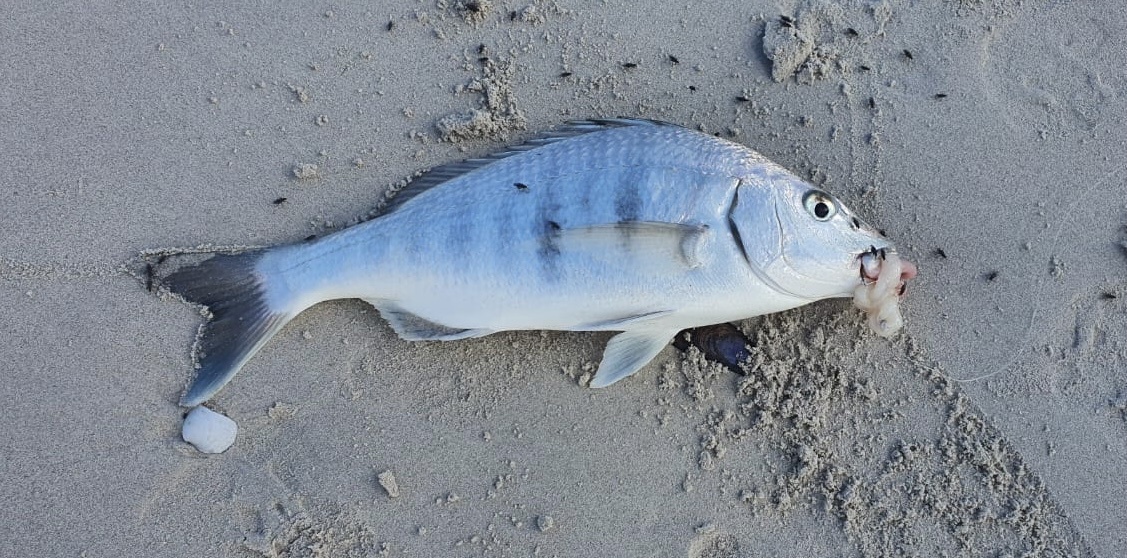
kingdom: Animalia
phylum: Chordata
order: Perciformes
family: Sparidae
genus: Lithognathus
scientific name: Lithognathus lithognathus
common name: White steenbras
